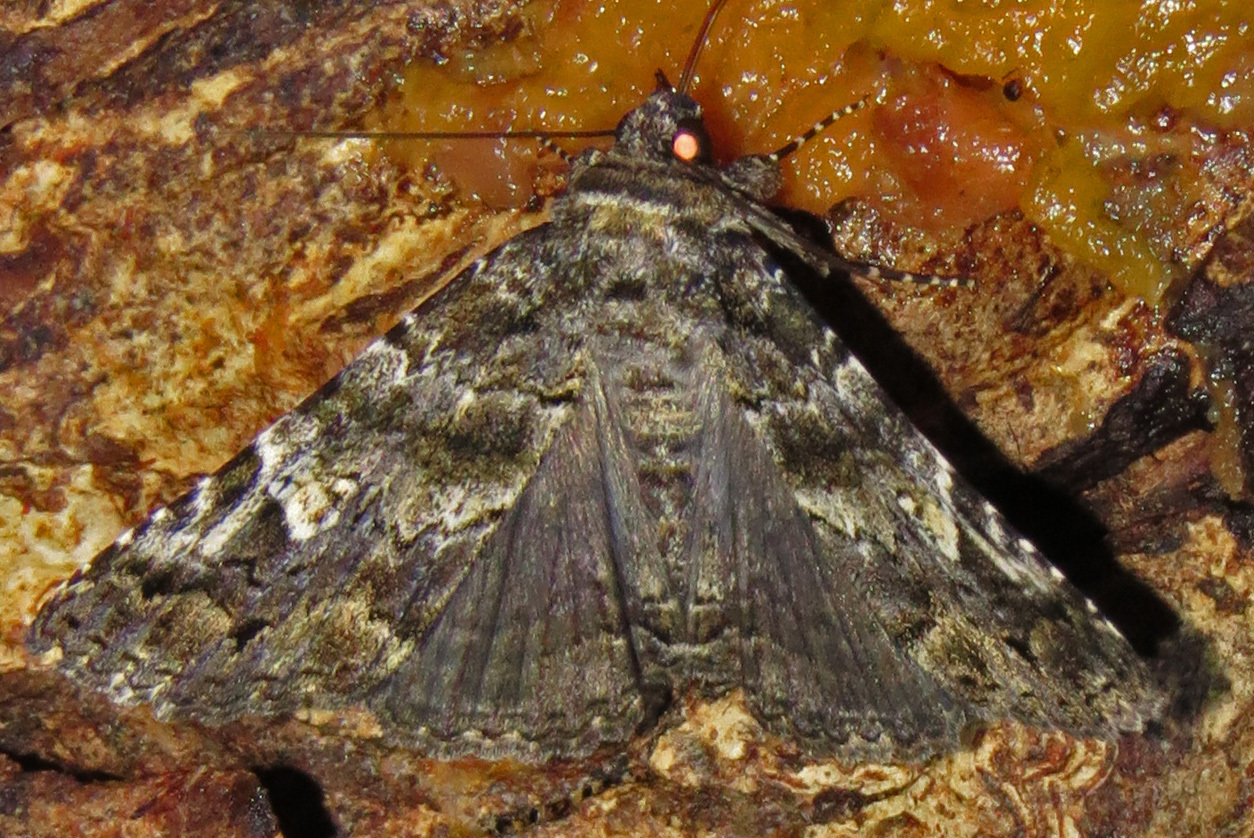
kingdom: Animalia
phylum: Arthropoda
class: Insecta
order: Lepidoptera
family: Erebidae
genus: Metria
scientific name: Metria amella
